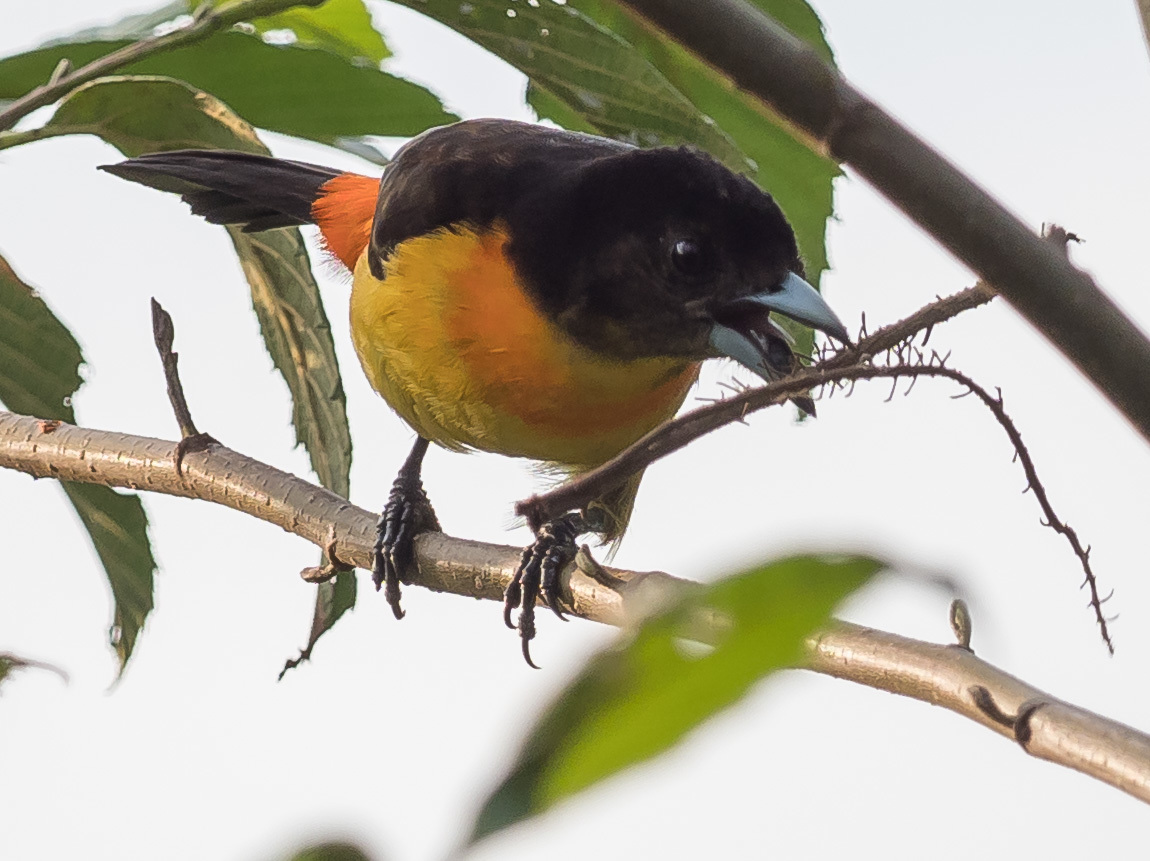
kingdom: Animalia
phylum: Chordata
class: Aves
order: Passeriformes
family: Thraupidae
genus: Ramphocelus
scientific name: Ramphocelus flammigerus
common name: Flame-rumped tanager
